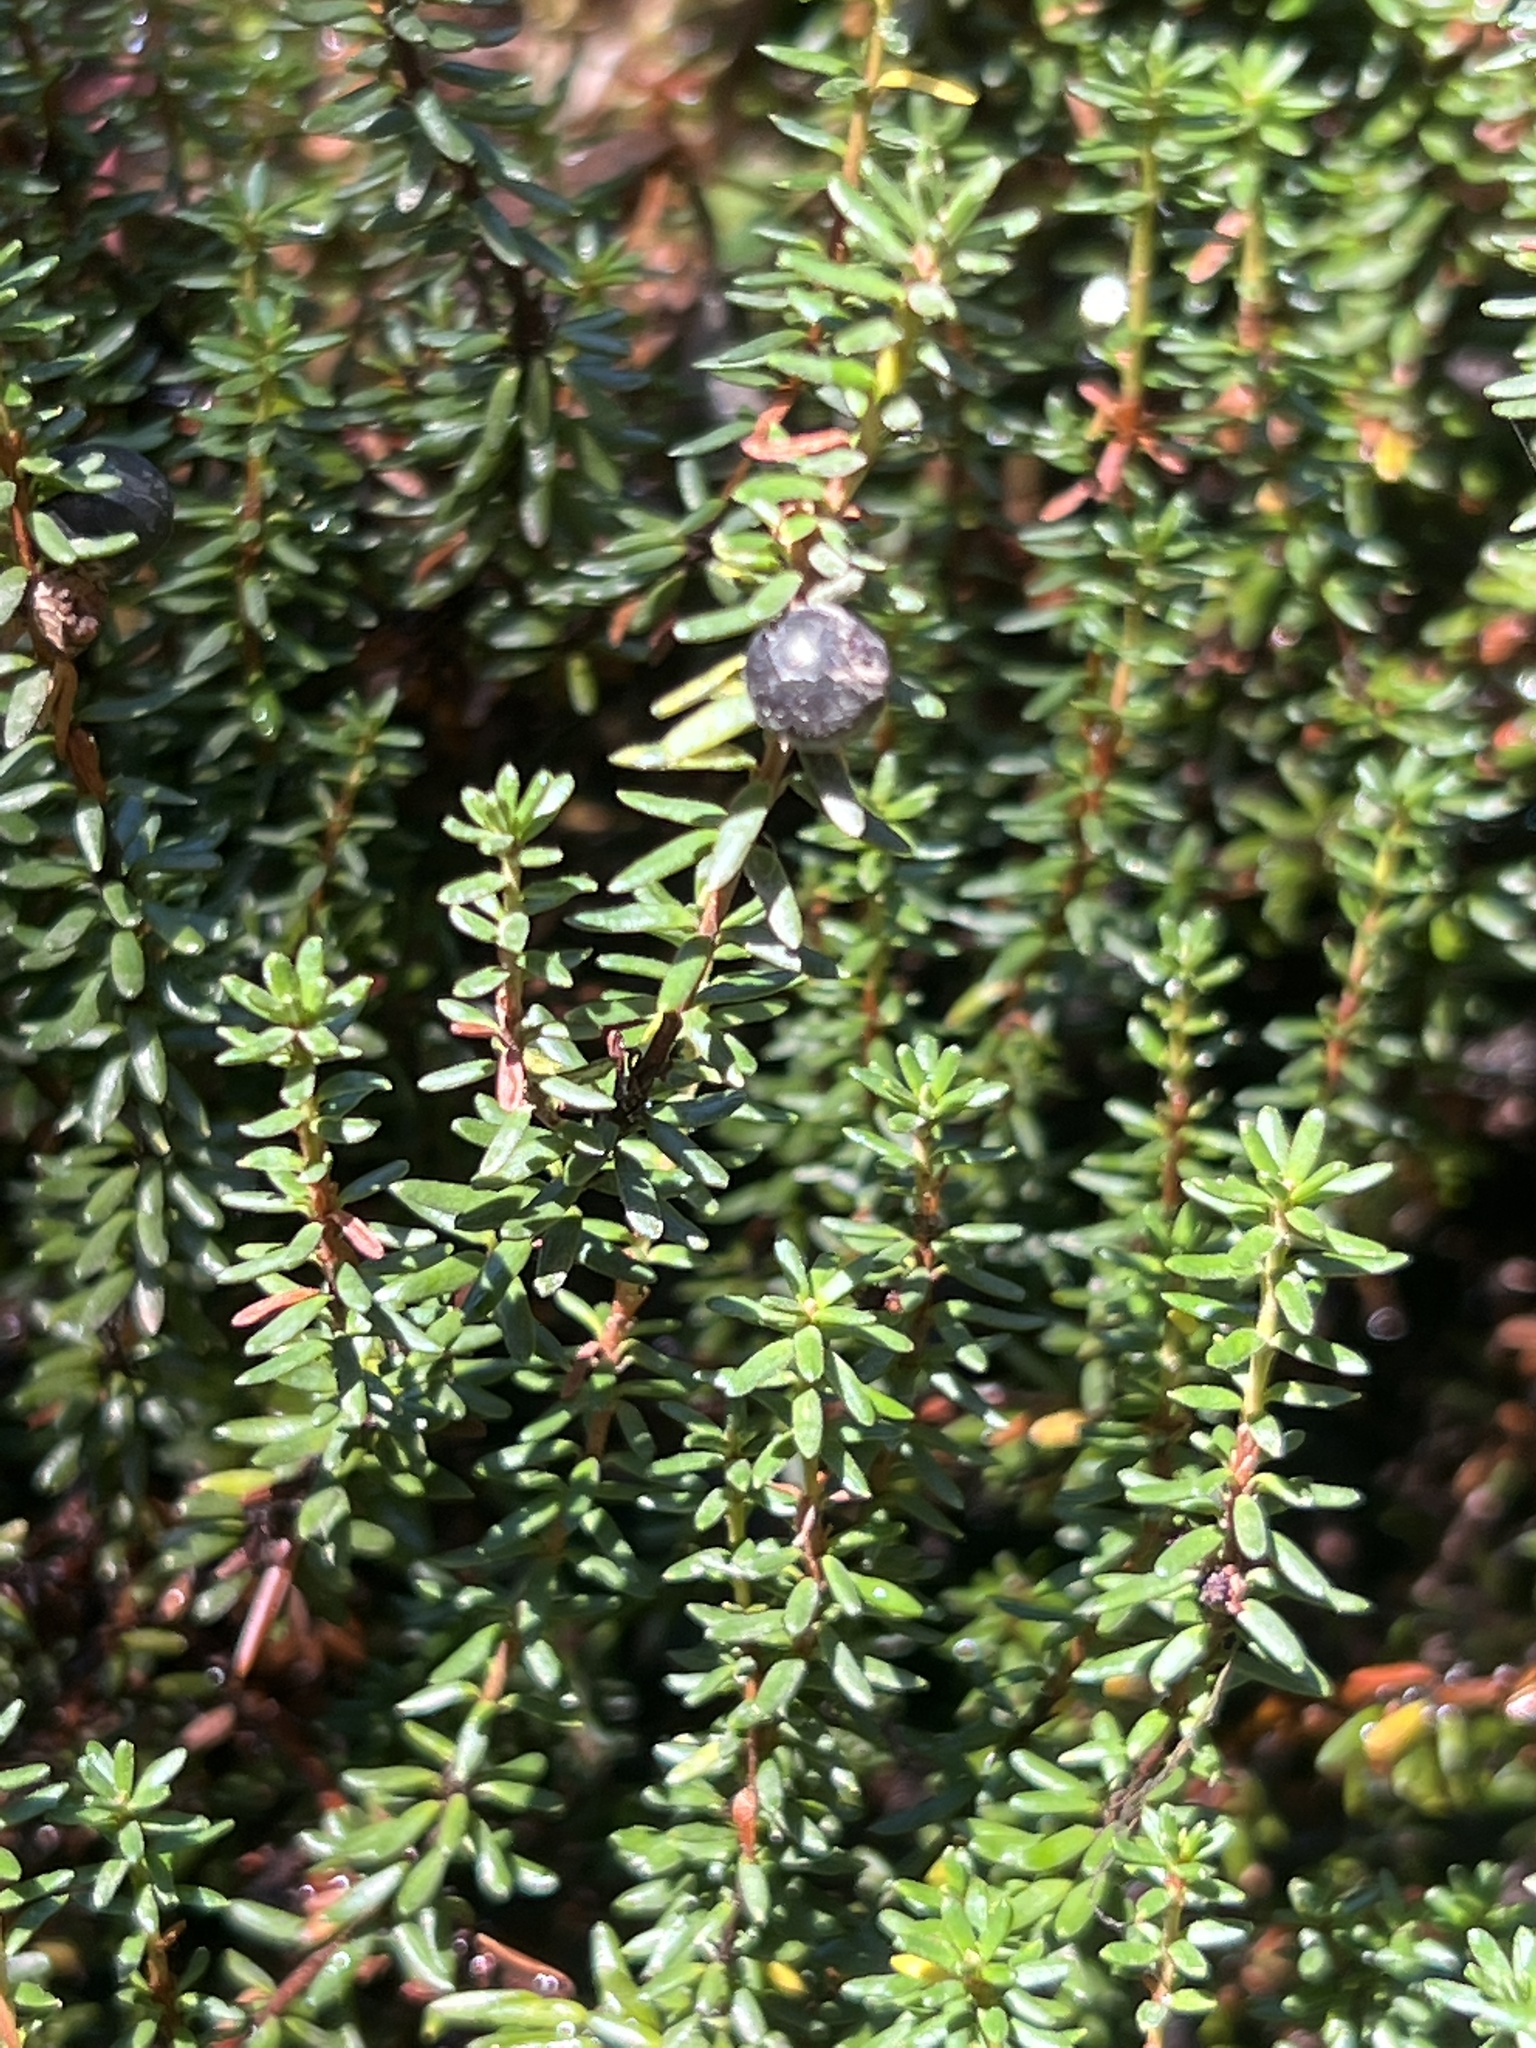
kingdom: Plantae
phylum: Tracheophyta
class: Magnoliopsida
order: Ericales
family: Ericaceae
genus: Empetrum
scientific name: Empetrum nigrum
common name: Black crowberry
